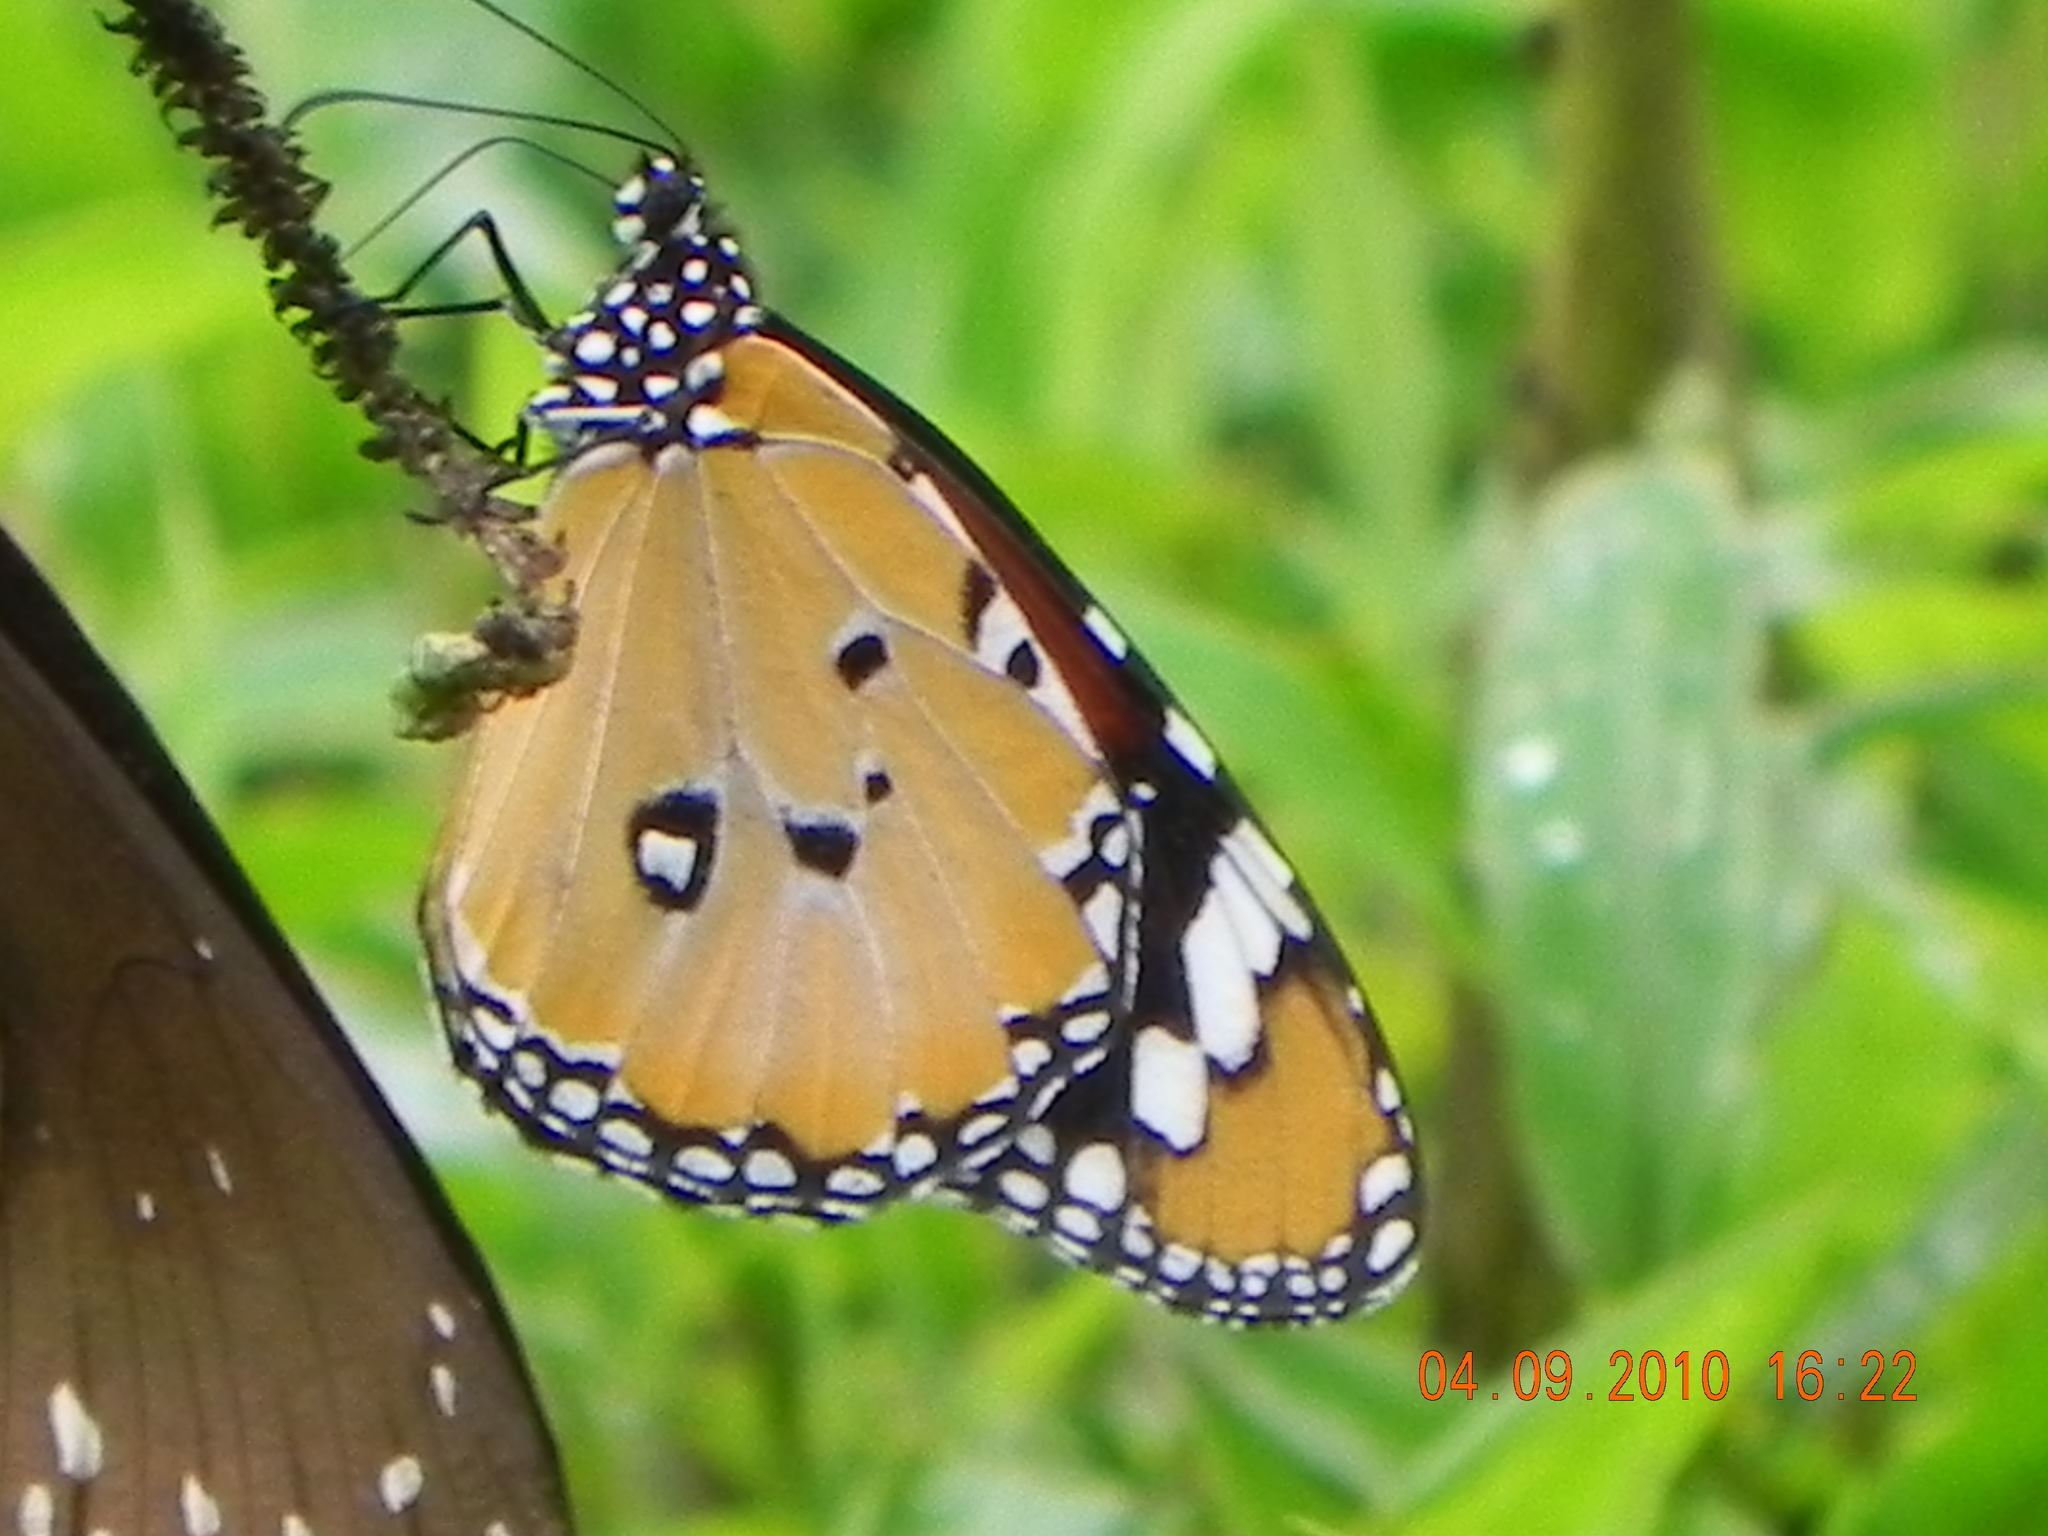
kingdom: Animalia
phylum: Arthropoda
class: Insecta
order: Lepidoptera
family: Nymphalidae
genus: Danaus
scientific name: Danaus chrysippus
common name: Plain tiger
